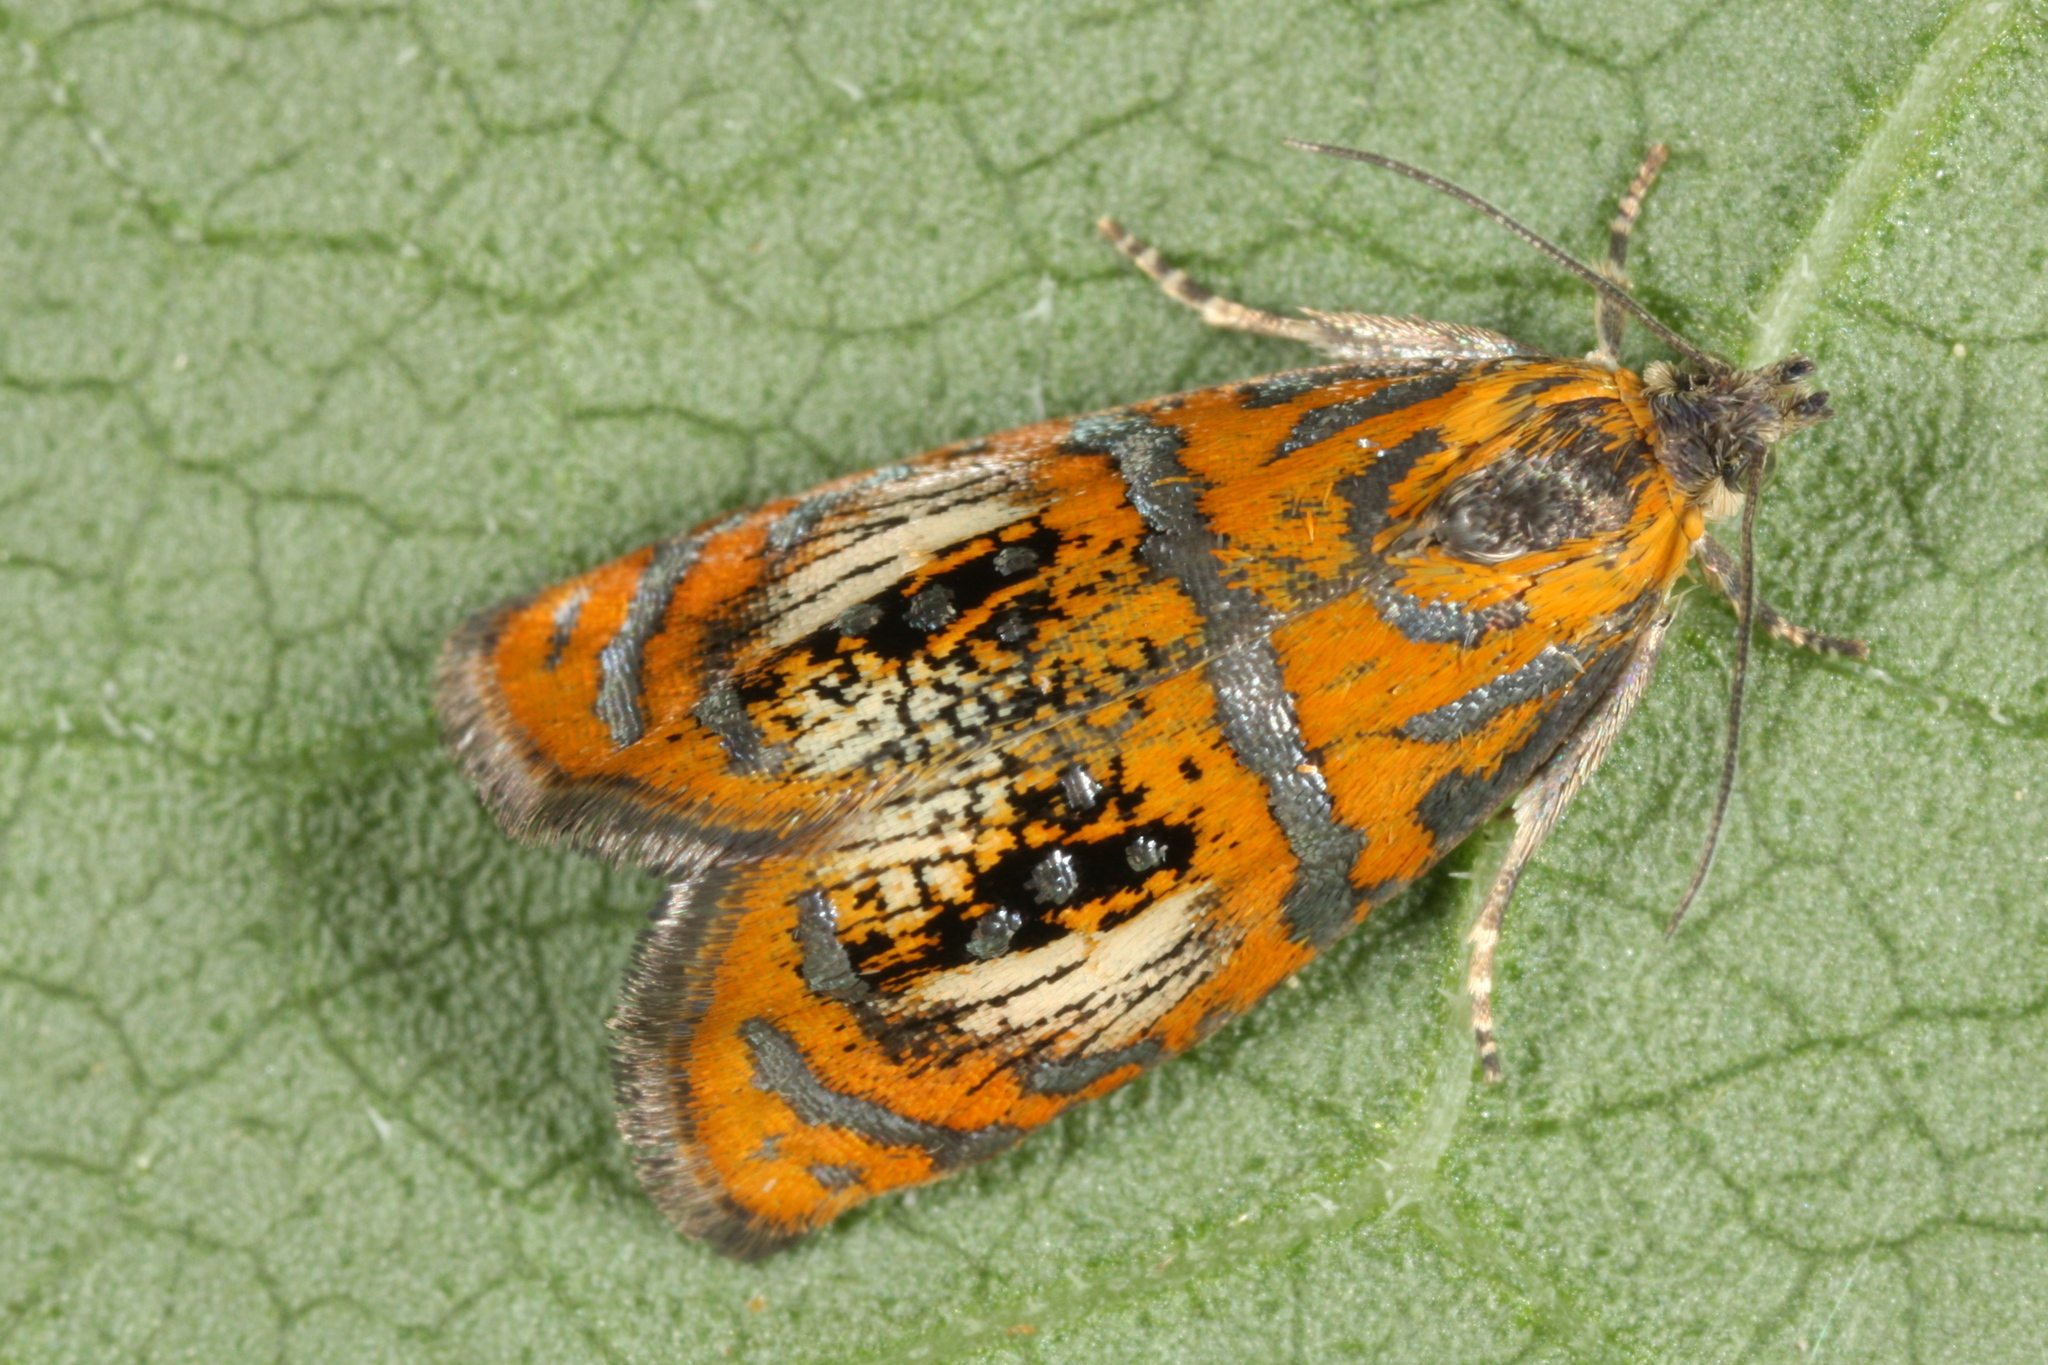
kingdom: Animalia
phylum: Arthropoda
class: Insecta
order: Lepidoptera
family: Tortricidae
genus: Olethreutes
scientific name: Olethreutes arcuella
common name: Arched marble
